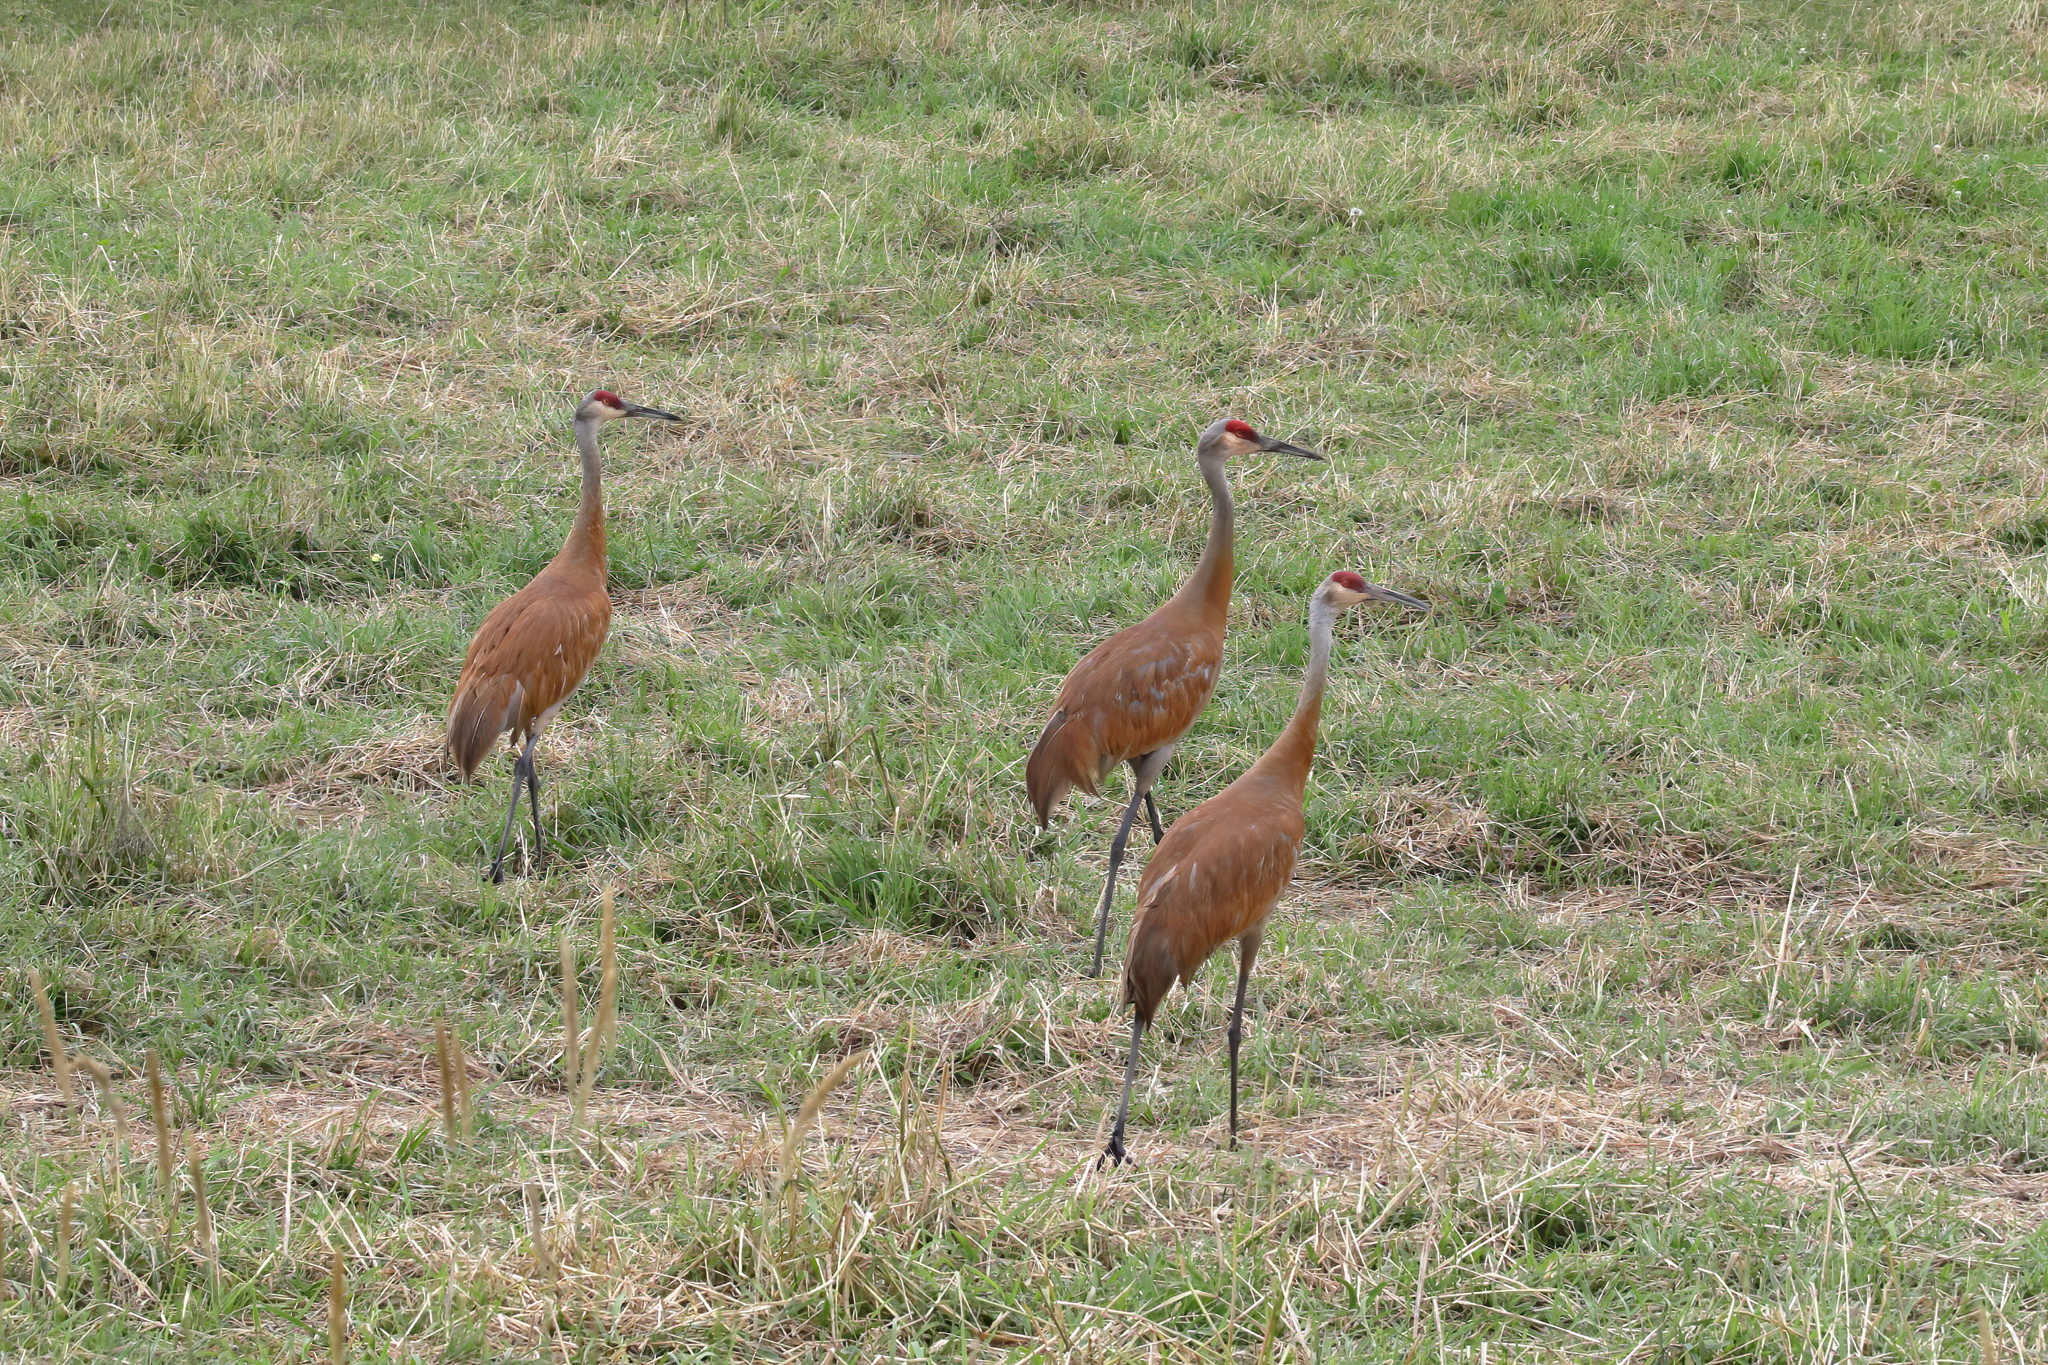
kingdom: Animalia
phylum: Chordata
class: Aves
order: Gruiformes
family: Gruidae
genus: Grus
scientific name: Grus canadensis
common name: Sandhill crane
